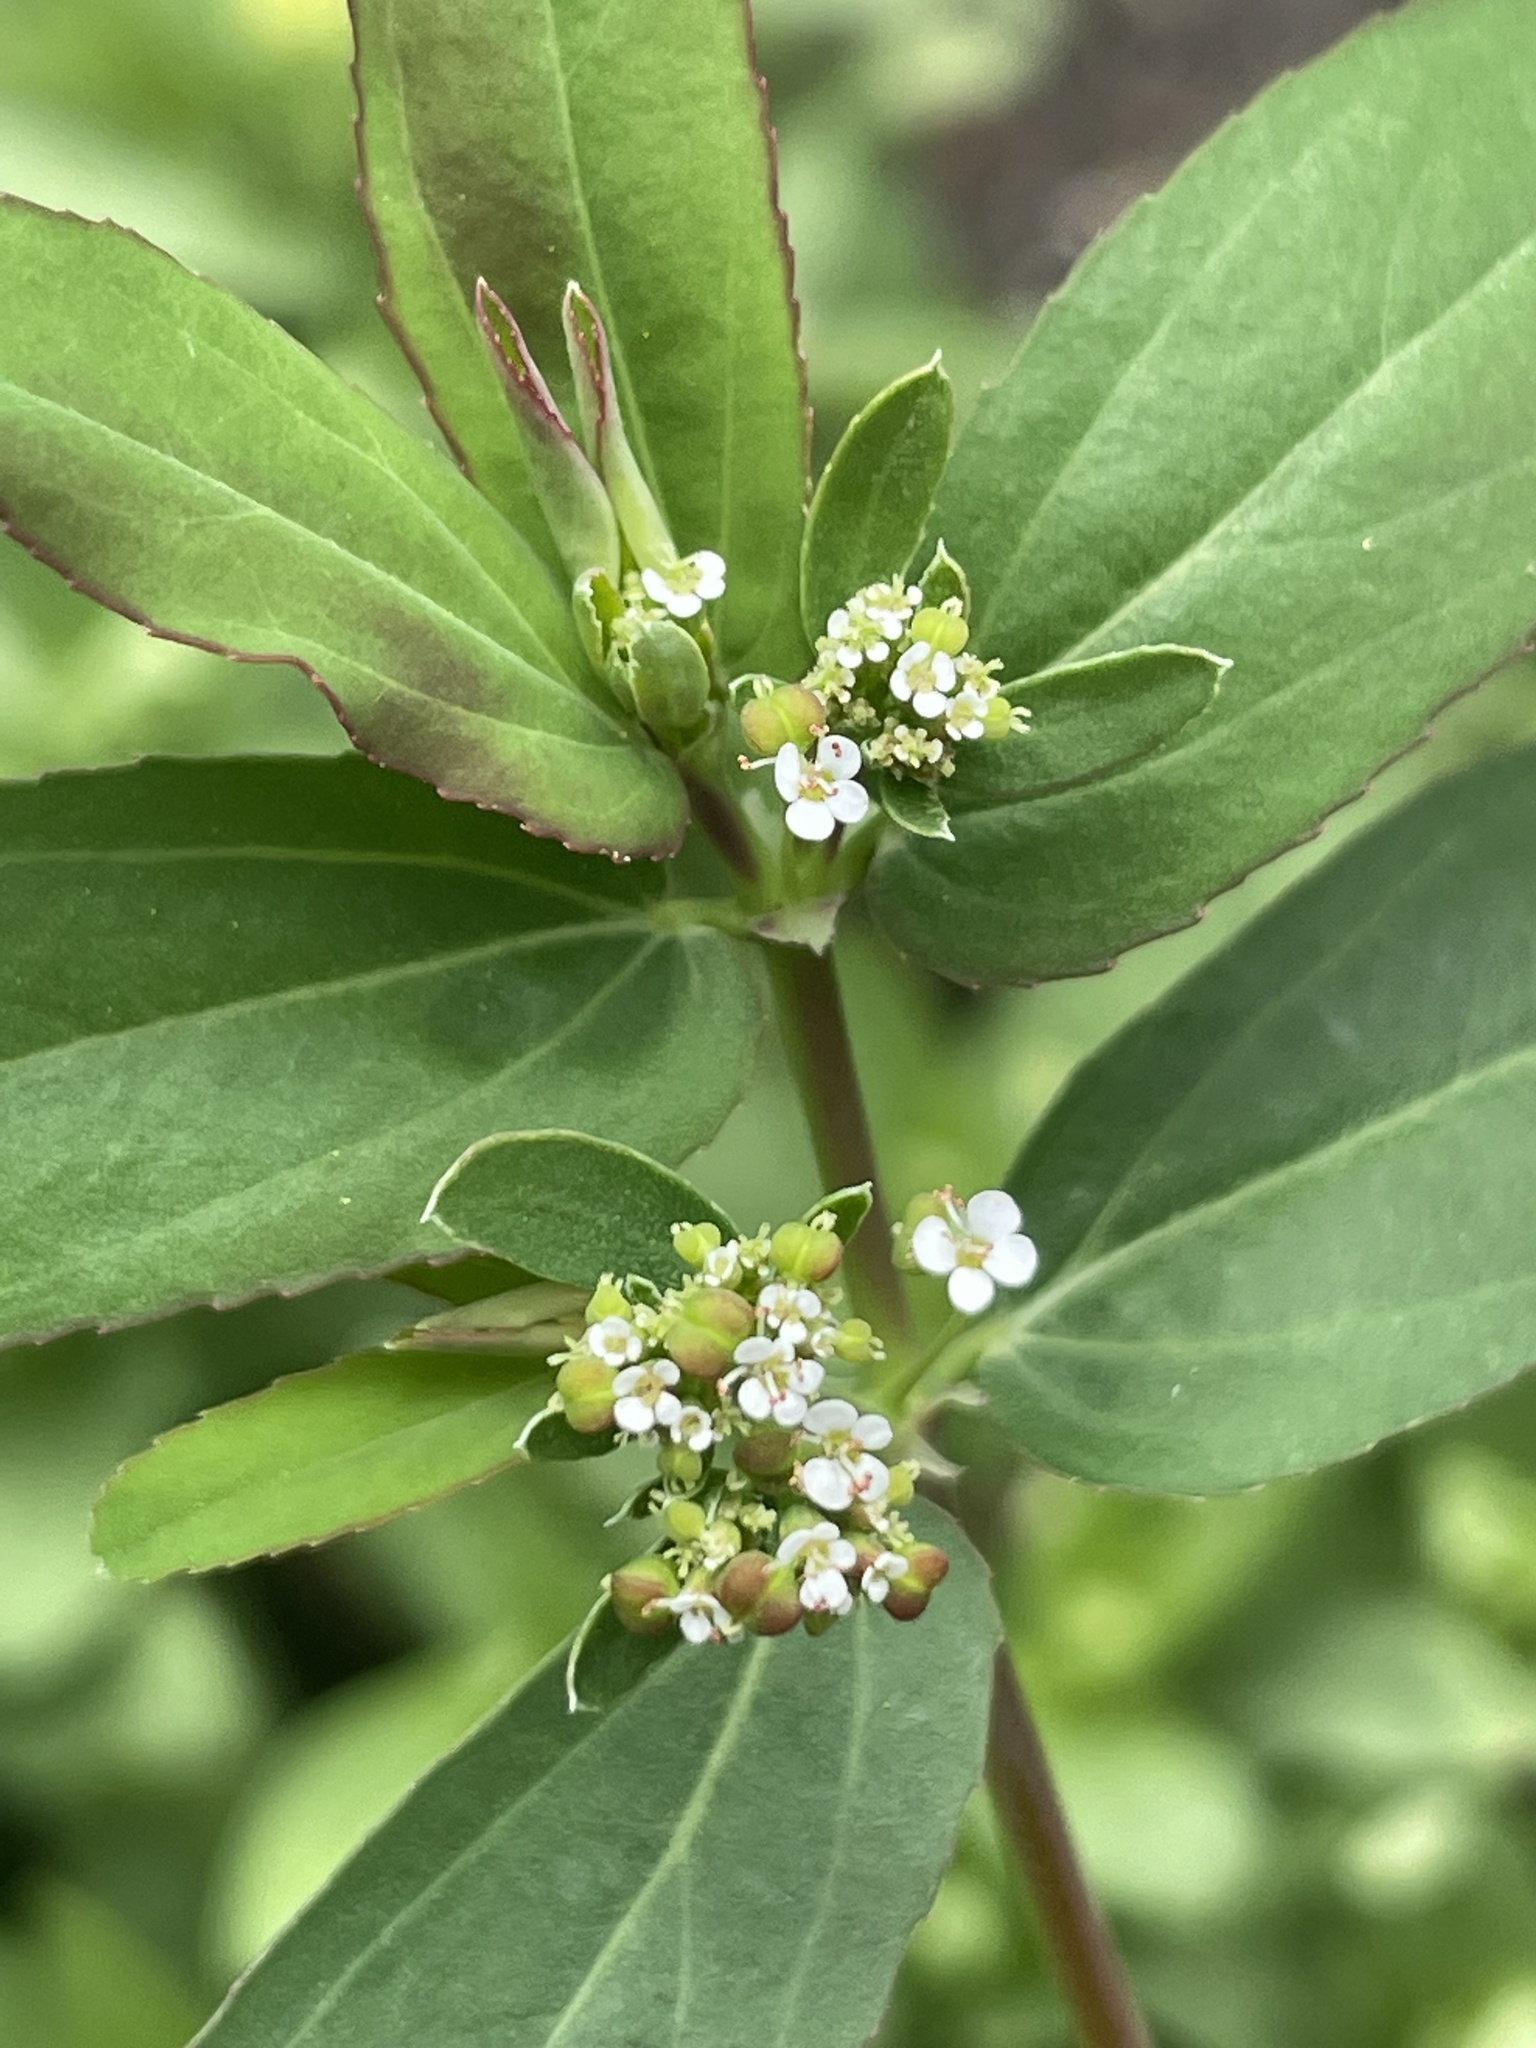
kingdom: Plantae
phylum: Tracheophyta
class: Magnoliopsida
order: Malpighiales
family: Euphorbiaceae
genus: Euphorbia
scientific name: Euphorbia hypericifolia
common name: Graceful sandmat
